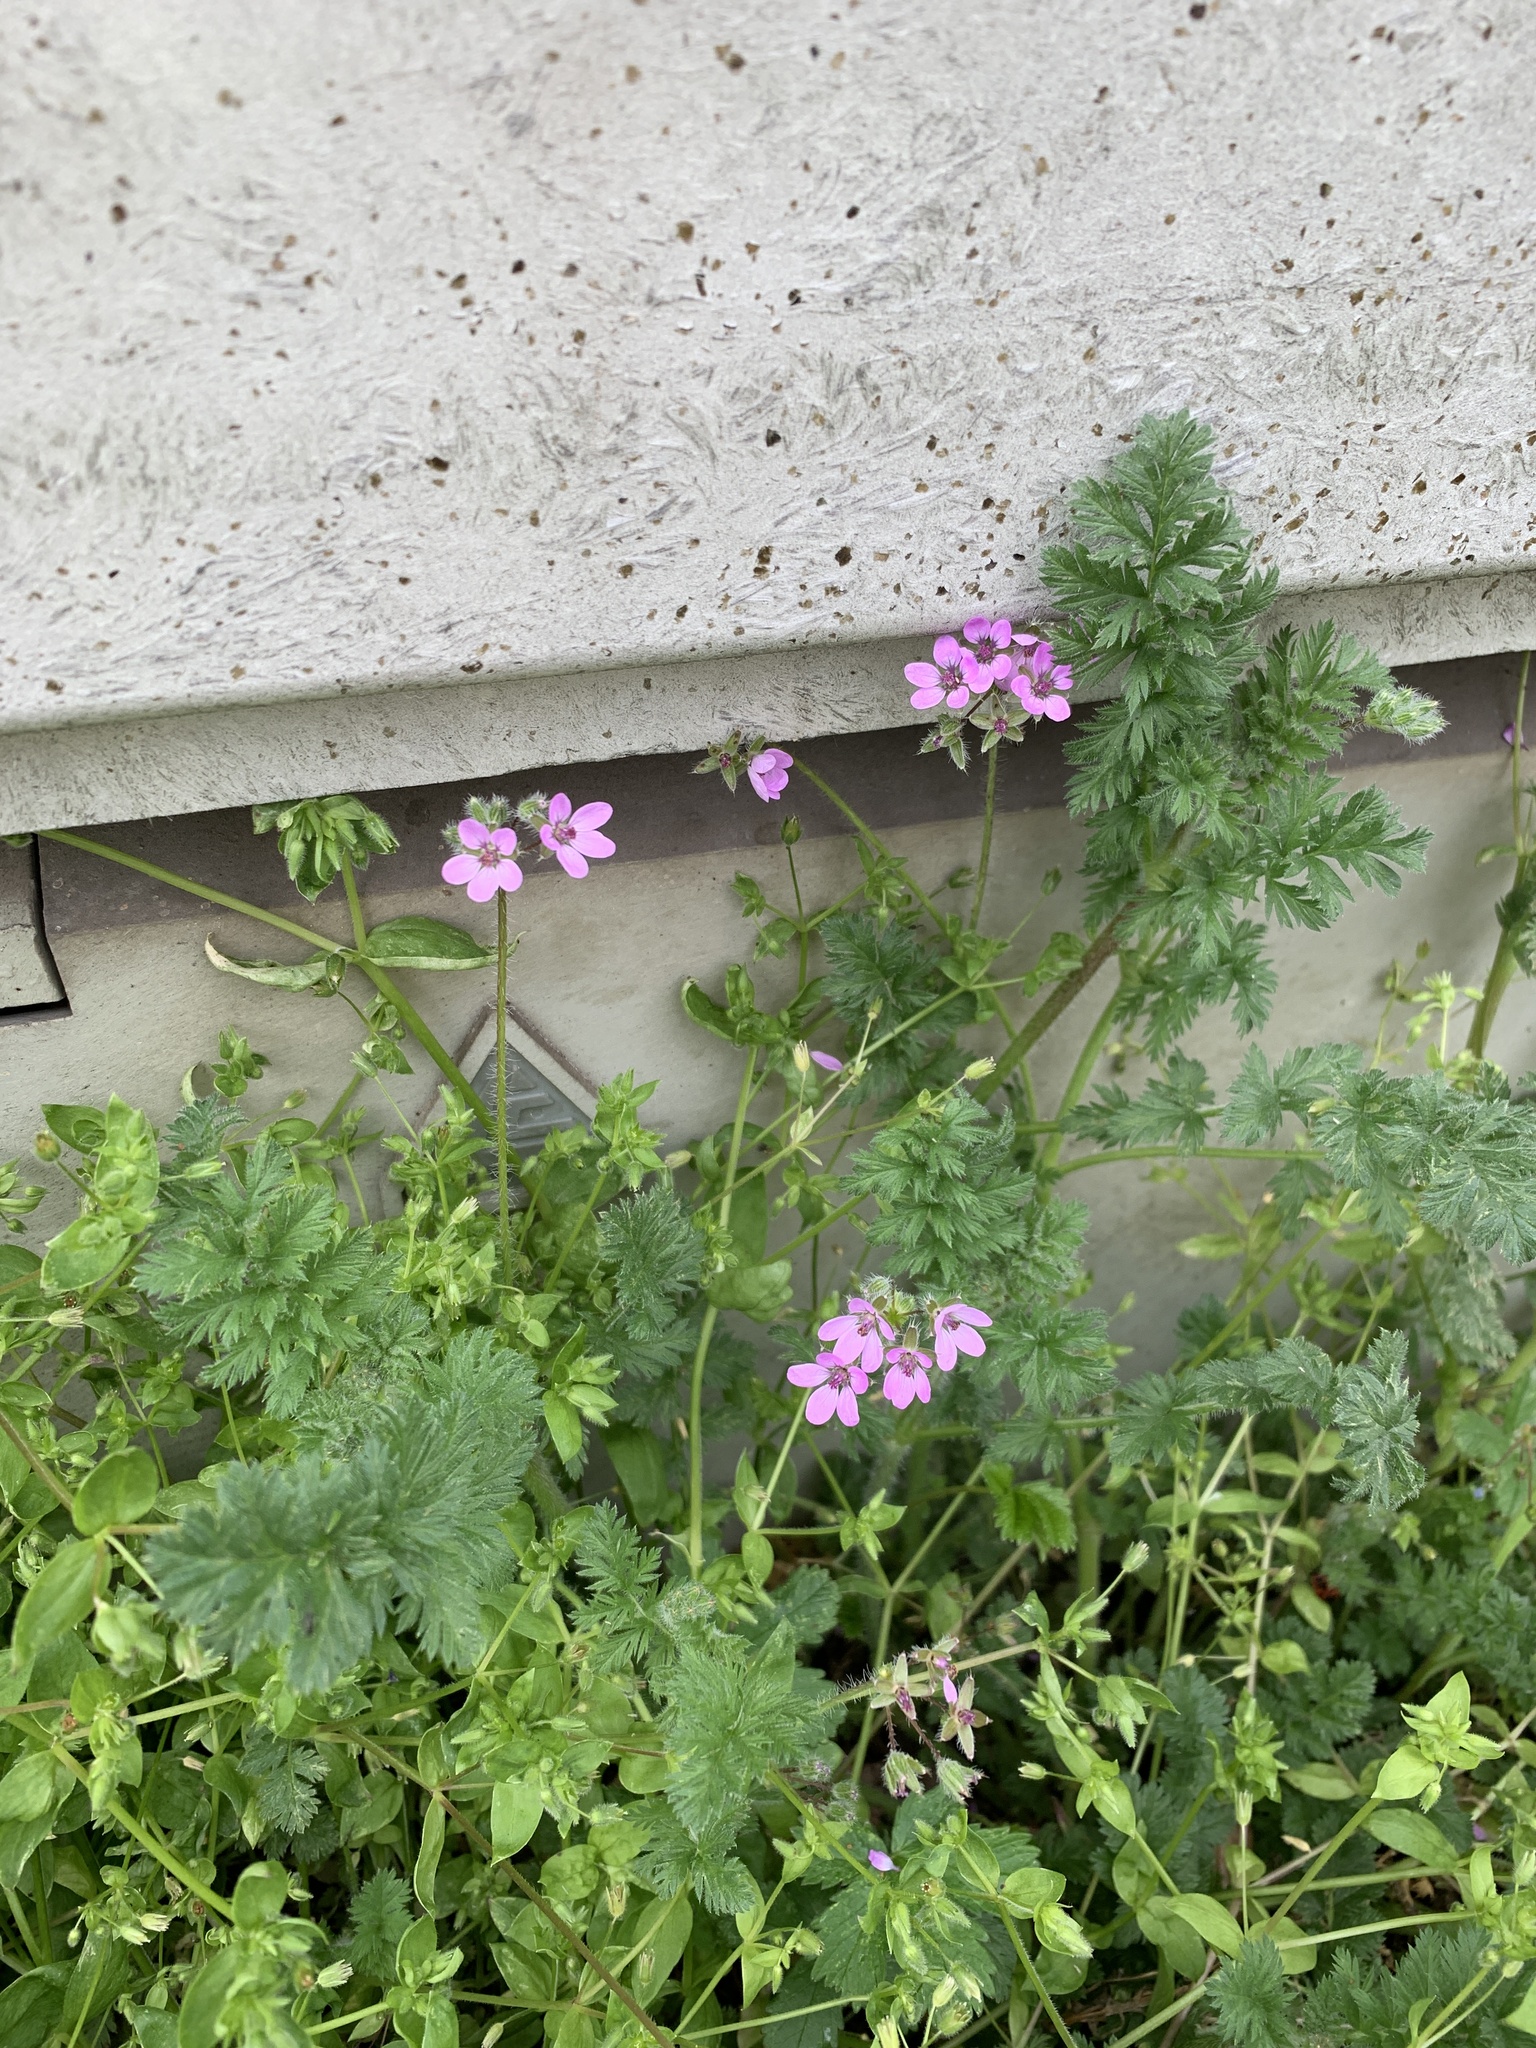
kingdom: Plantae
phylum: Tracheophyta
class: Magnoliopsida
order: Geraniales
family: Geraniaceae
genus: Erodium
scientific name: Erodium cicutarium
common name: Common stork's-bill
